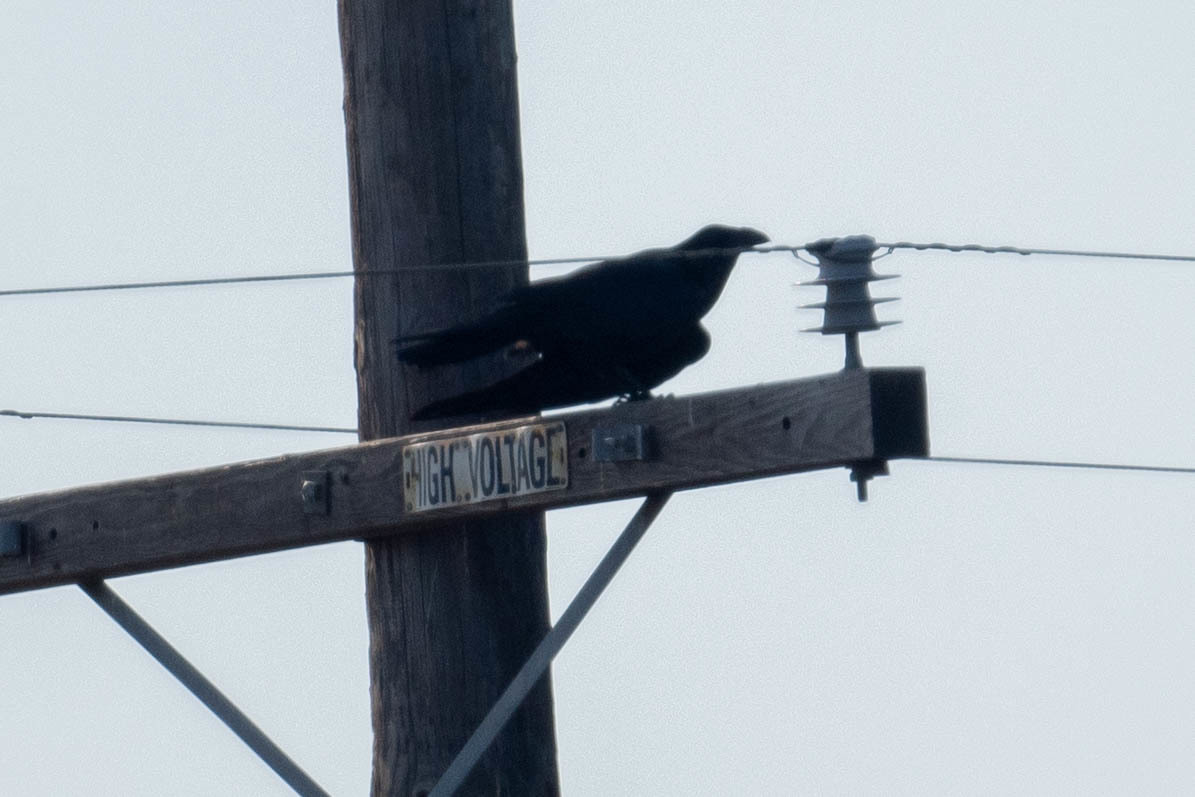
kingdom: Animalia
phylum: Chordata
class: Aves
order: Passeriformes
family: Corvidae
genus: Corvus
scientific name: Corvus corax
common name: Common raven
